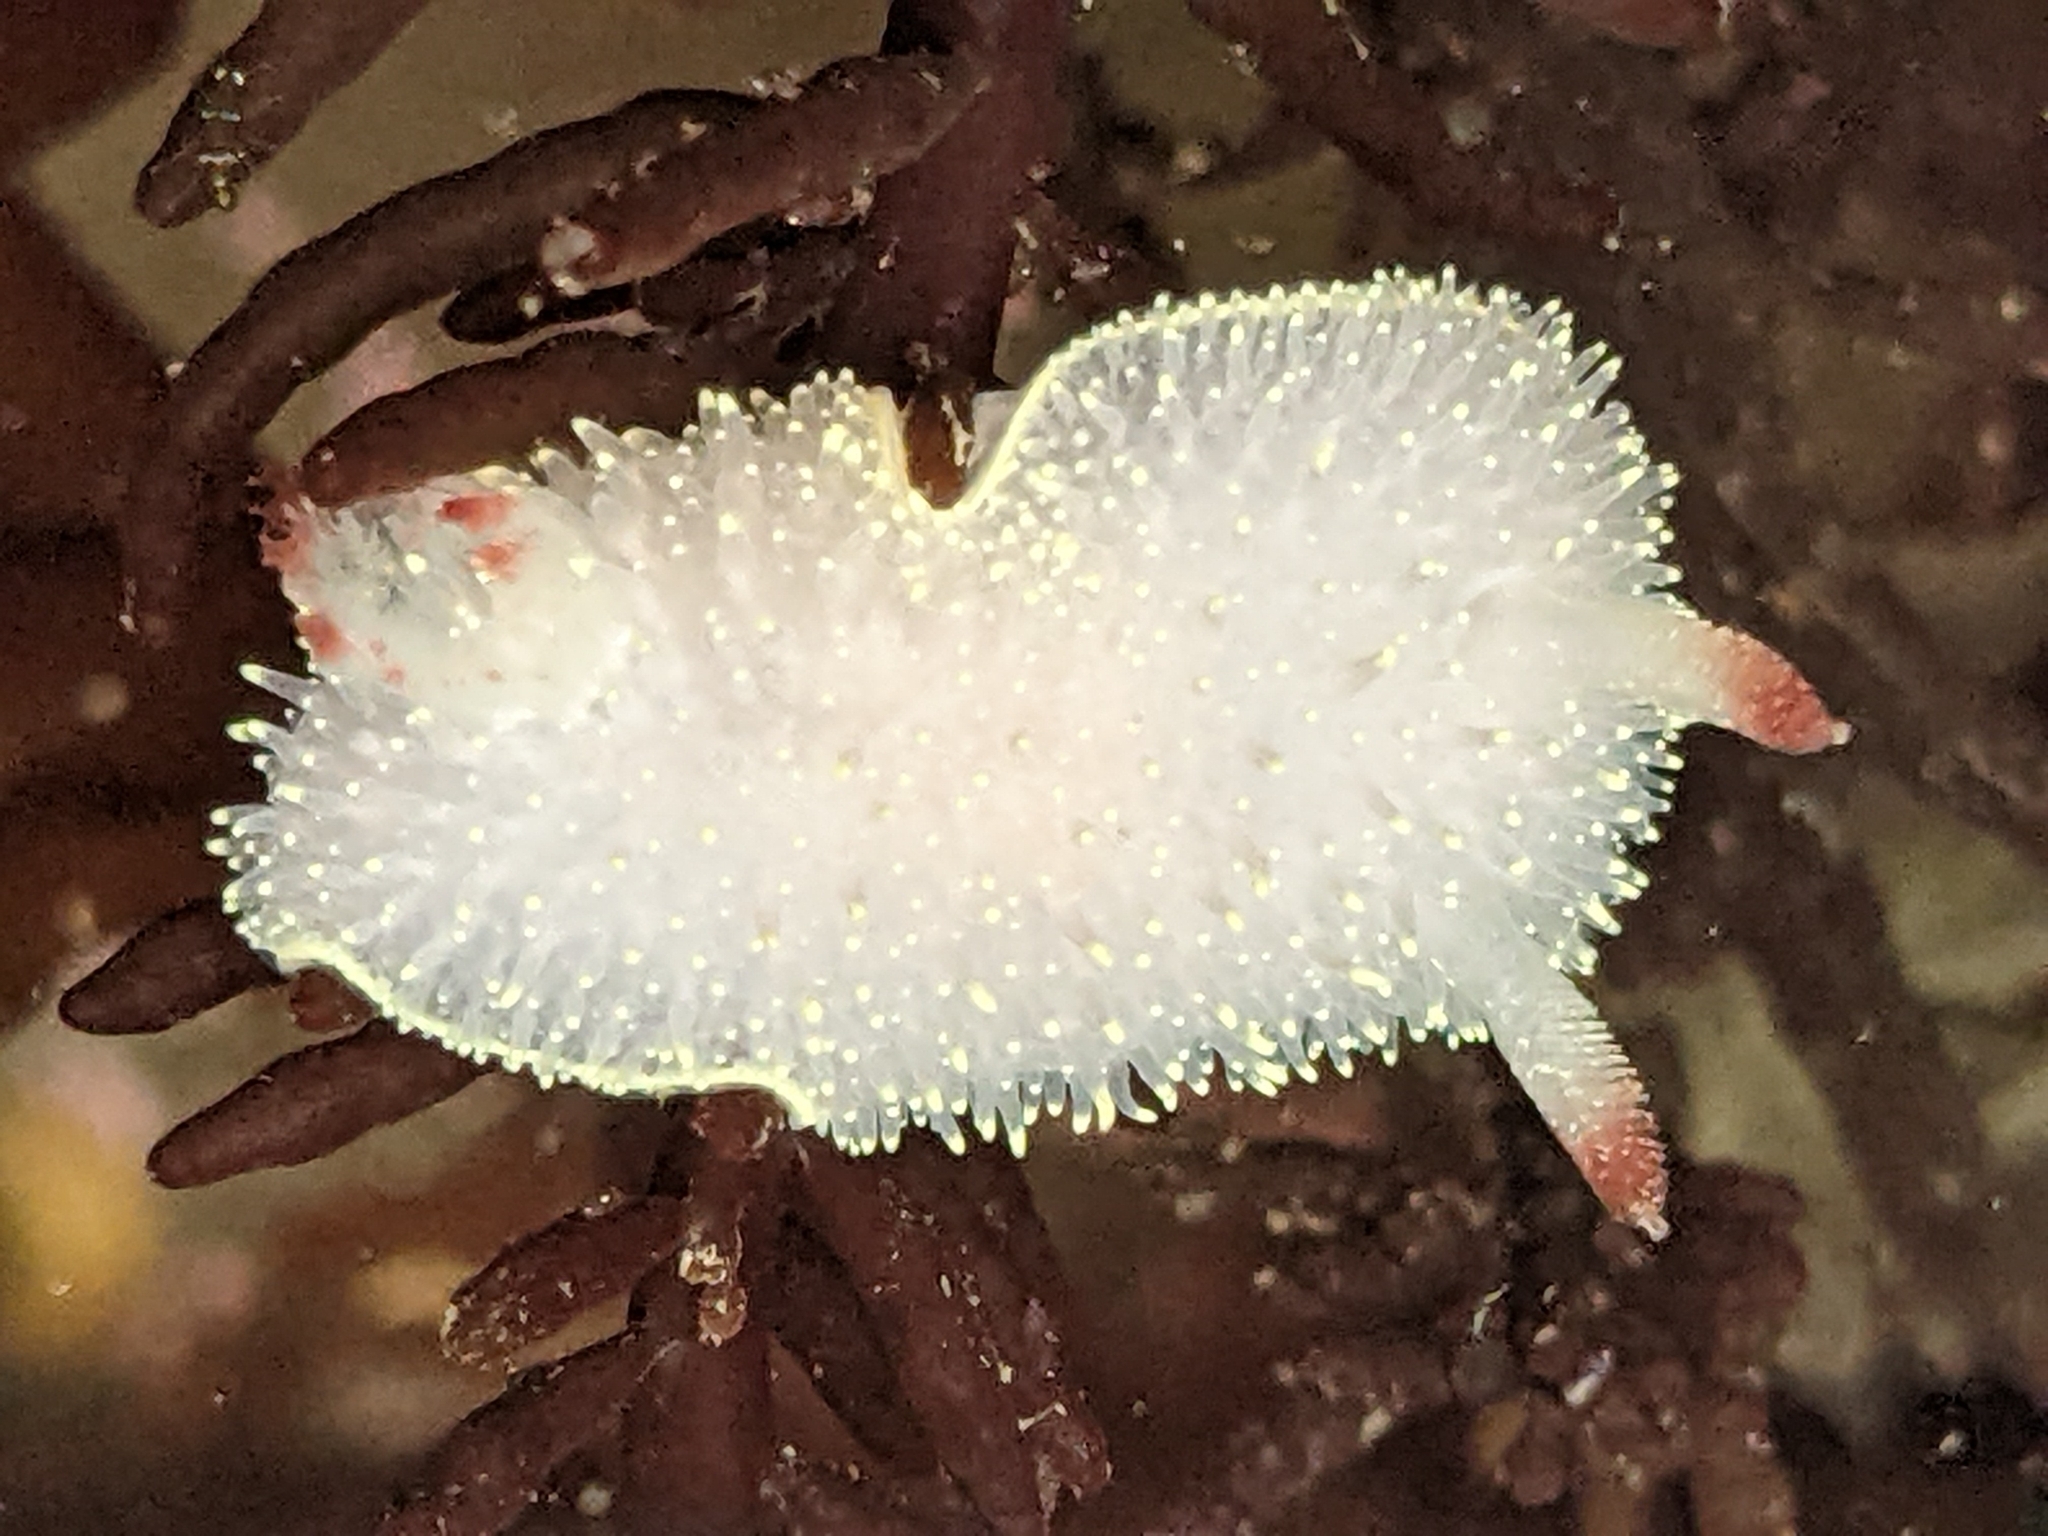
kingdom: Animalia
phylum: Mollusca
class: Gastropoda
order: Nudibranchia
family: Onchidorididae
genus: Acanthodoris
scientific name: Acanthodoris nanaimoensis
